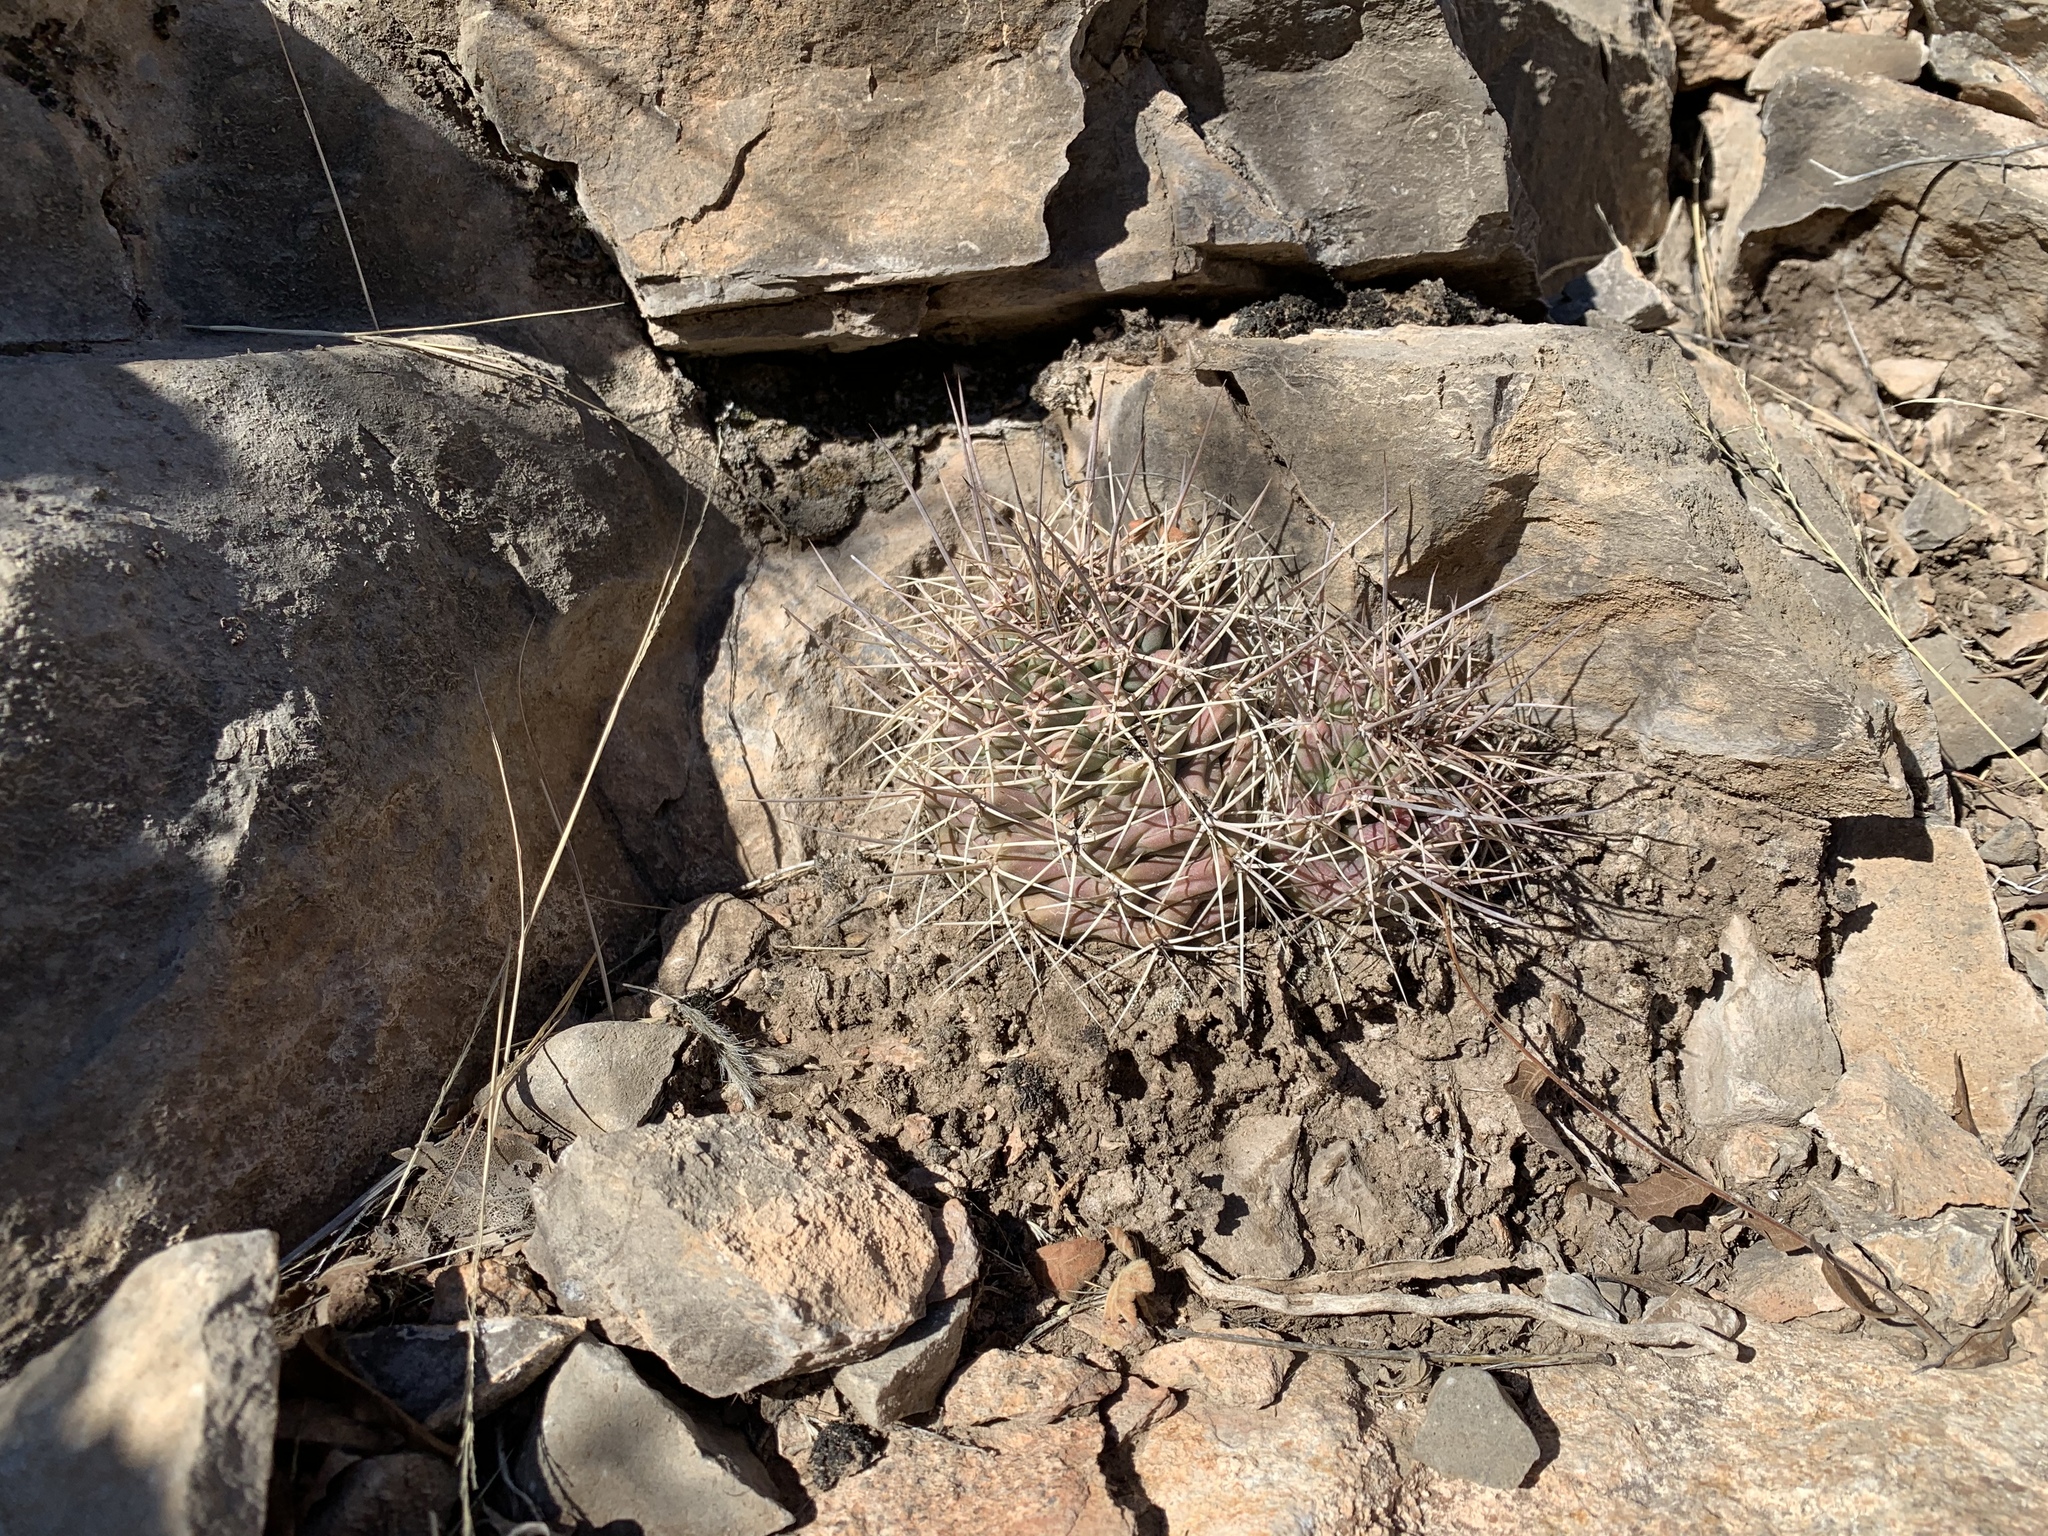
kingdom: Plantae
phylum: Tracheophyta
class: Magnoliopsida
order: Caryophyllales
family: Cactaceae
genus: Echinocereus
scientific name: Echinocereus coccineus
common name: Scarlet hedgehog cactus
